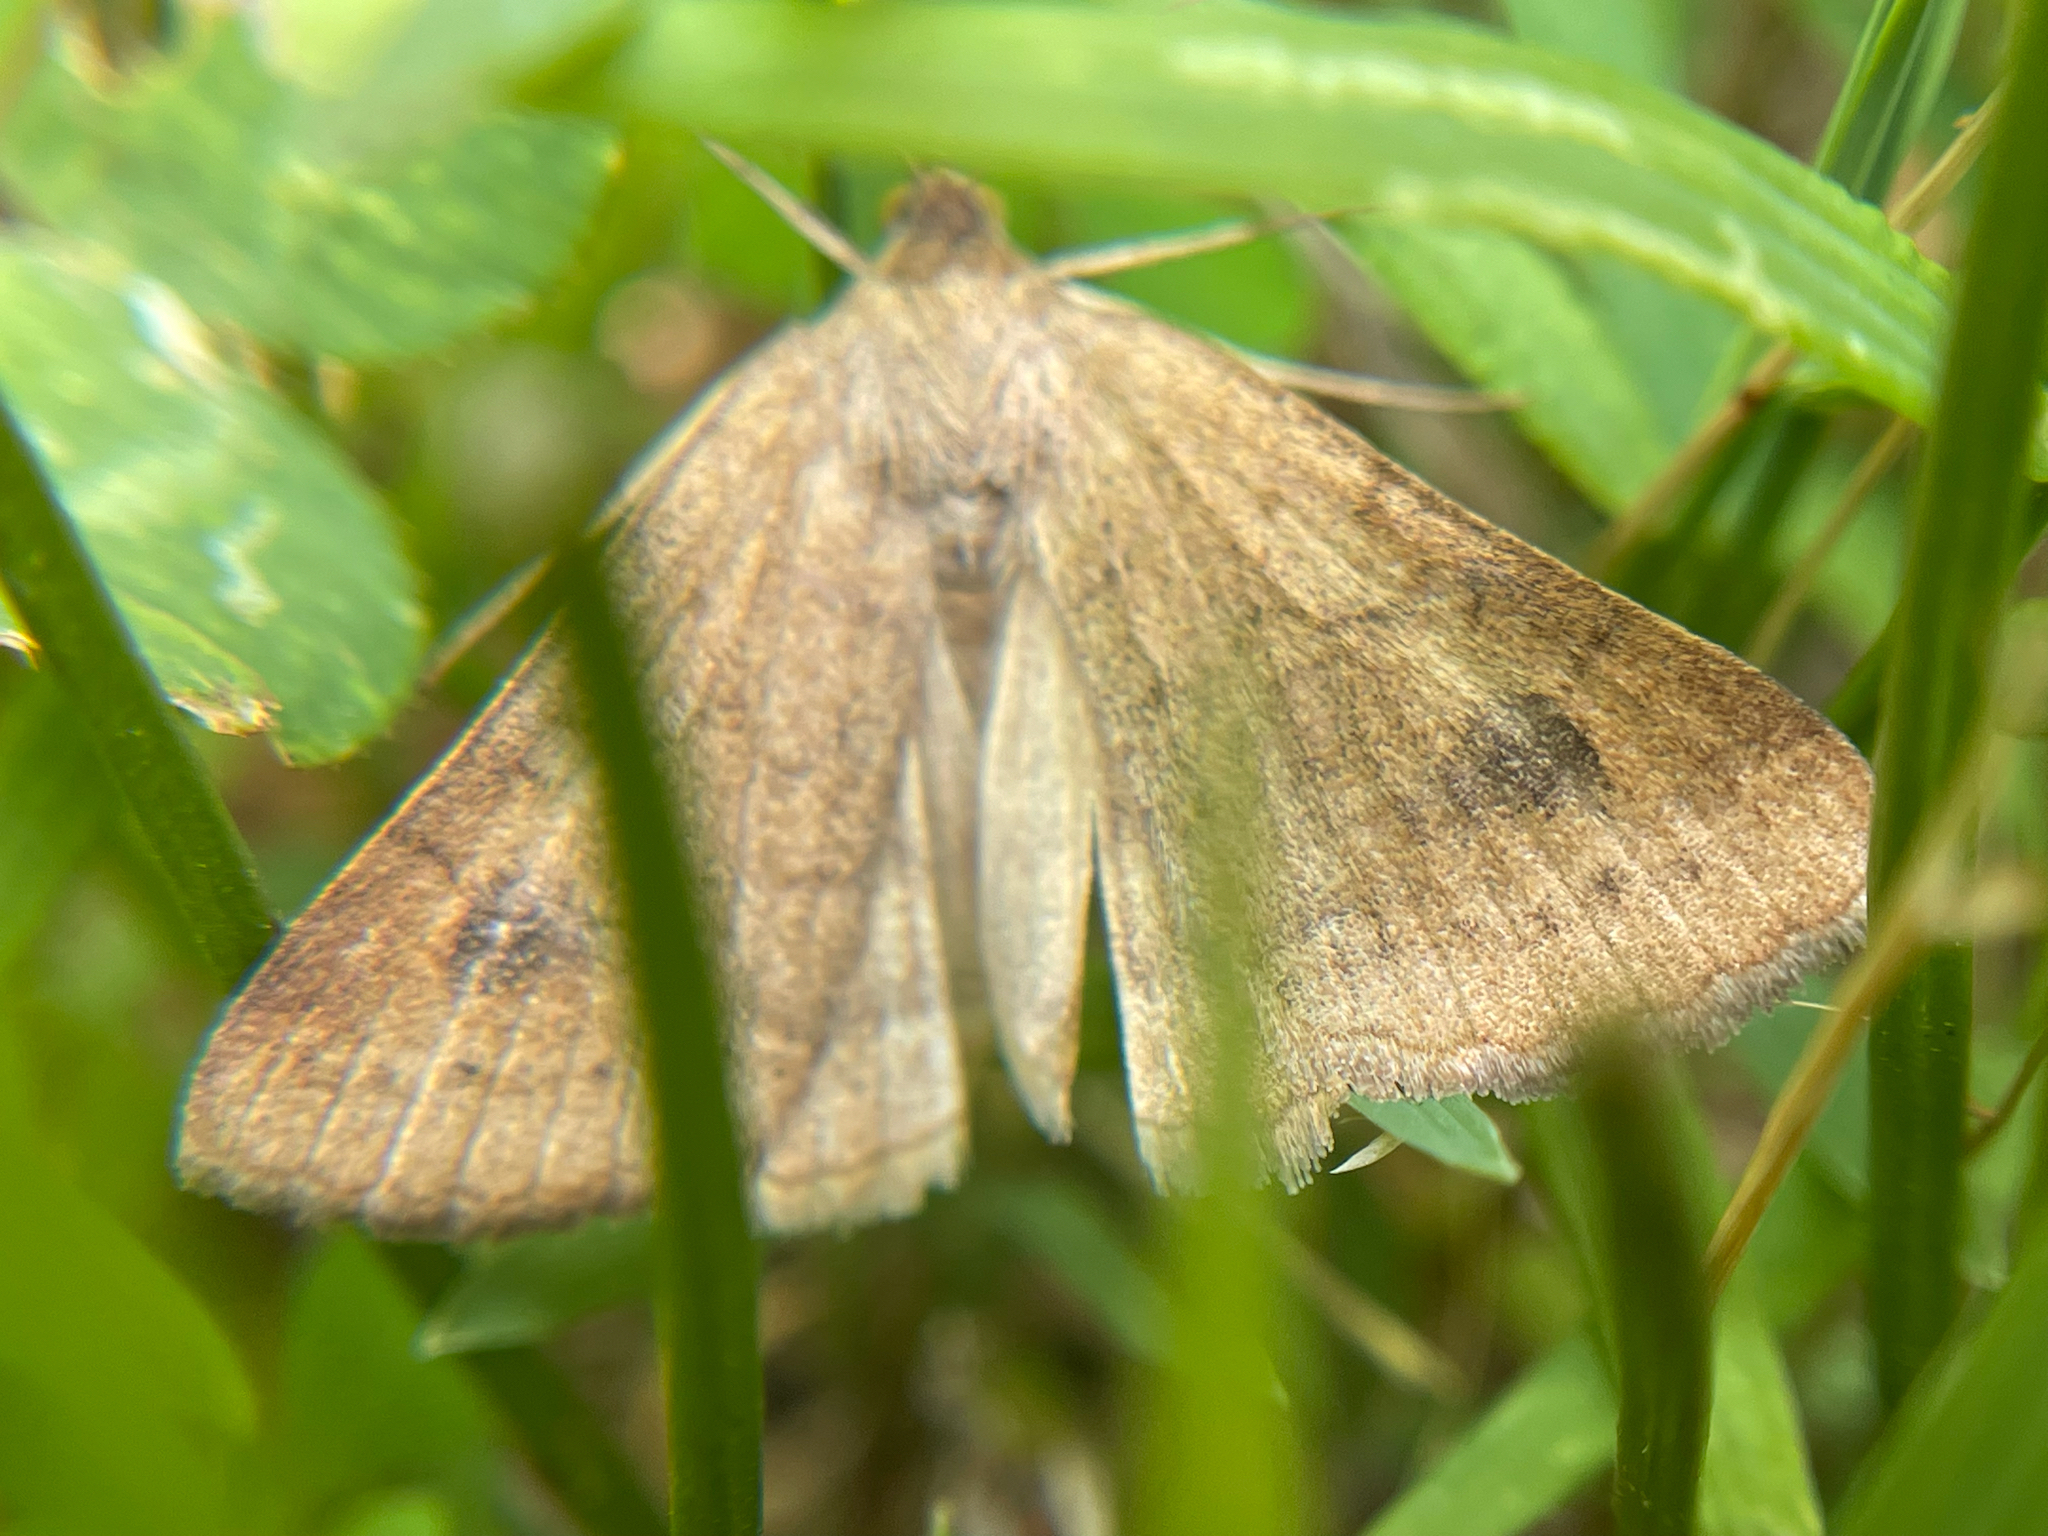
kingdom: Animalia
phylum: Arthropoda
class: Insecta
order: Lepidoptera
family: Erebidae
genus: Caenurgia
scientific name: Caenurgia chloropha
